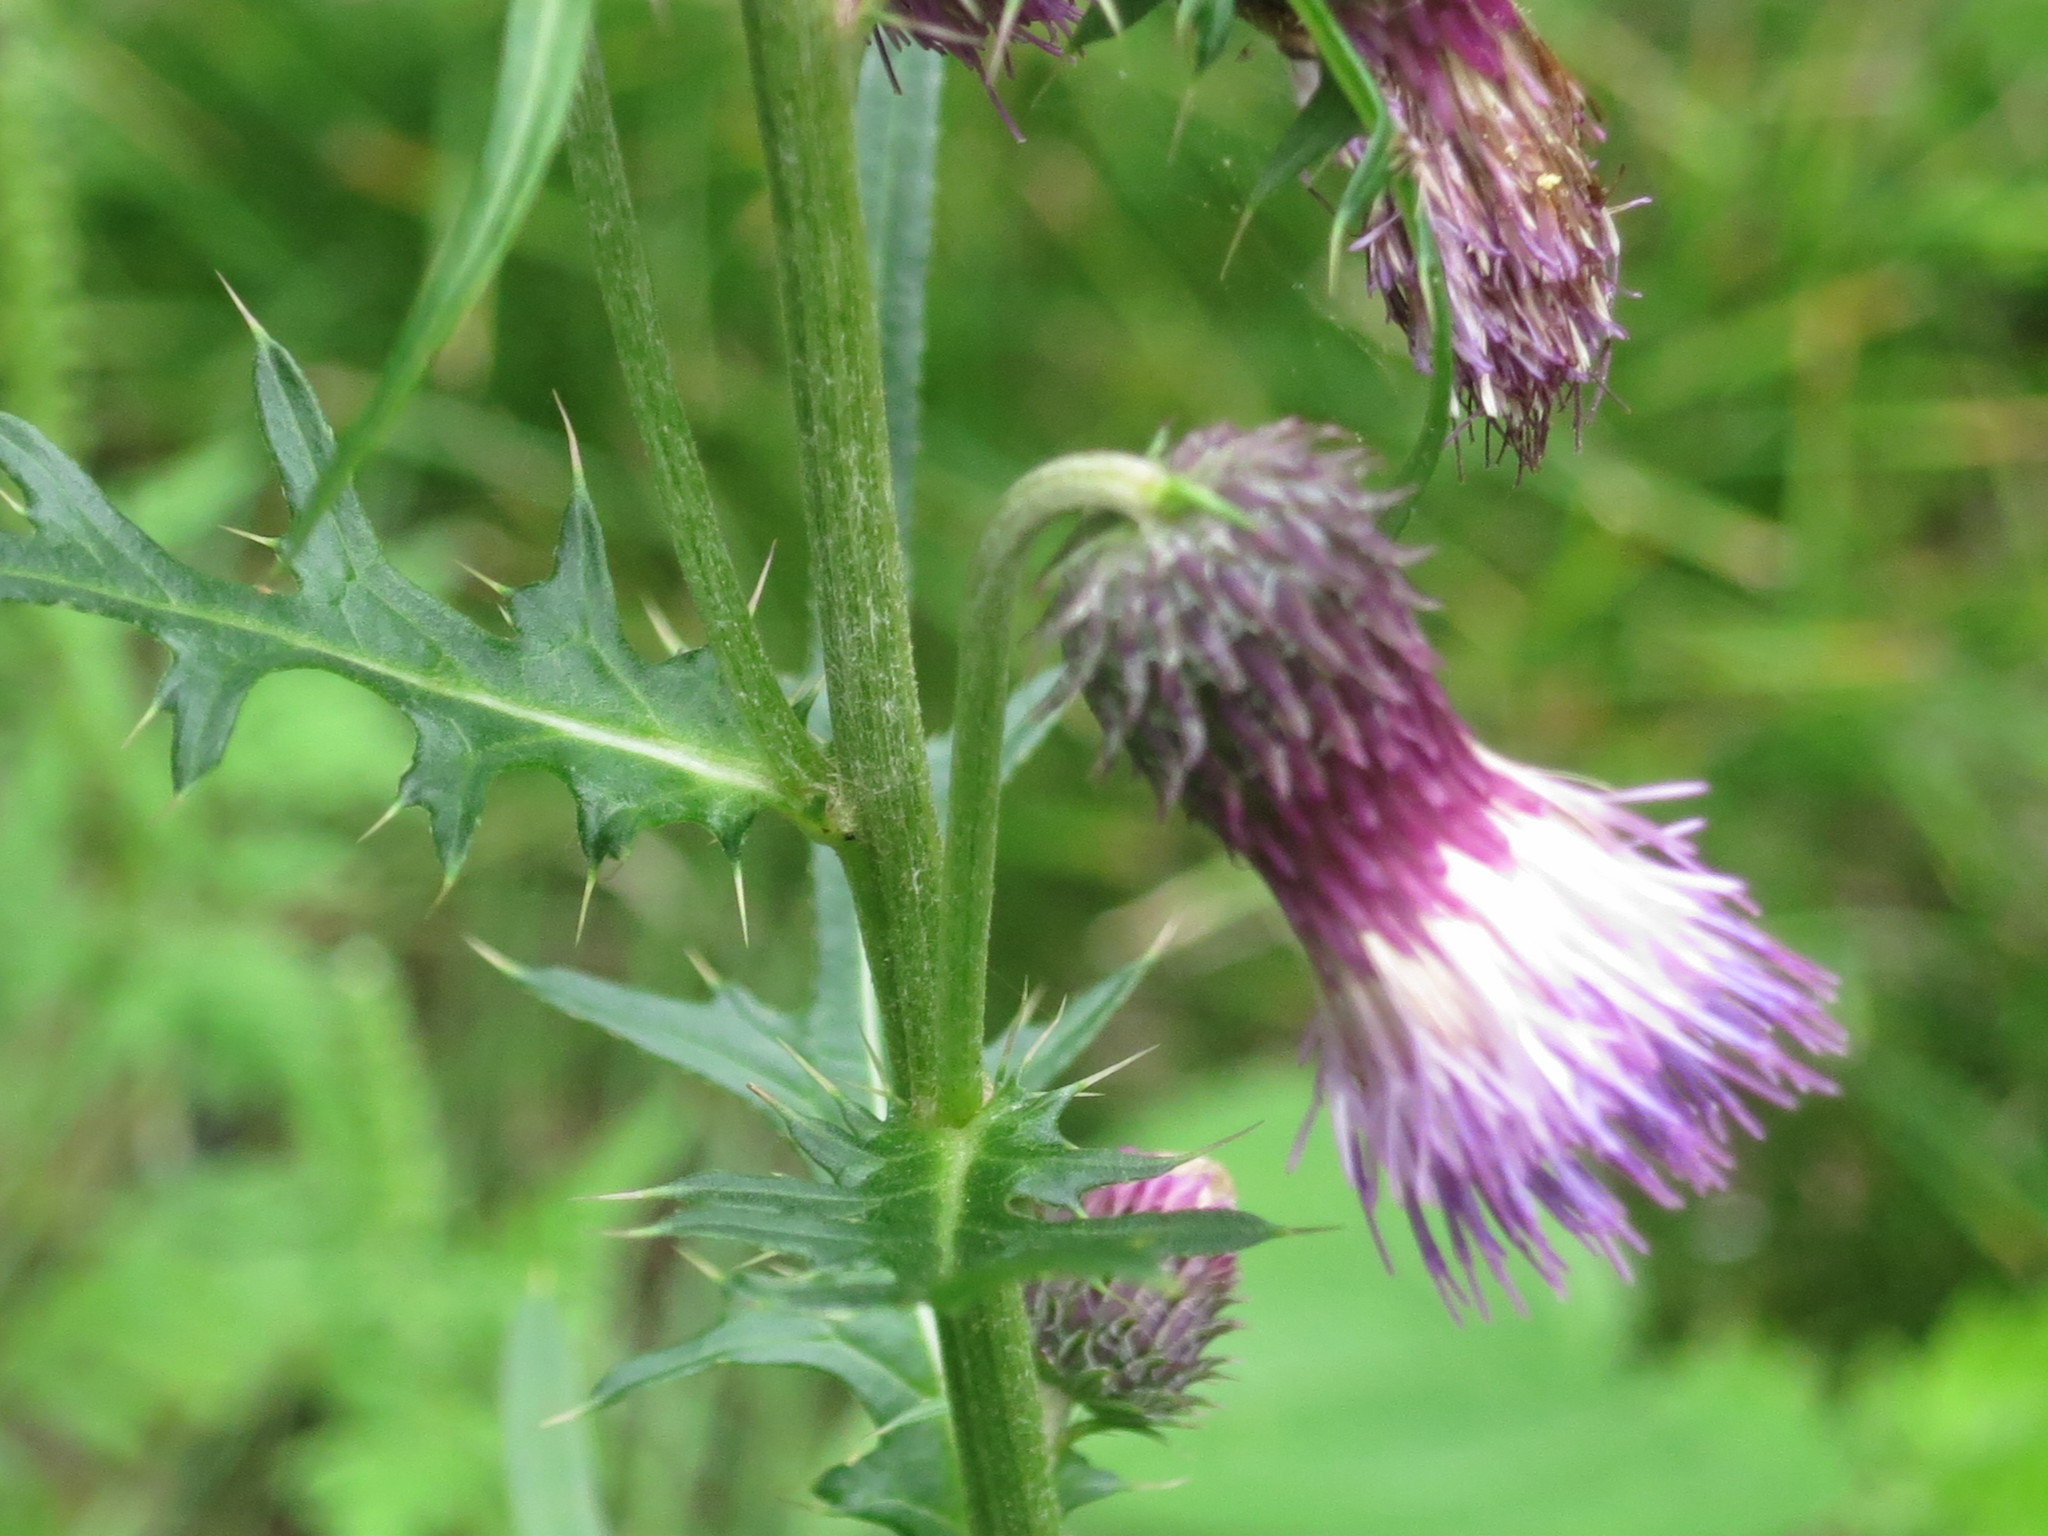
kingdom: Plantae
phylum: Tracheophyta
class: Magnoliopsida
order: Asterales
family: Asteraceae
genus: Cirsium
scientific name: Cirsium pendulum
